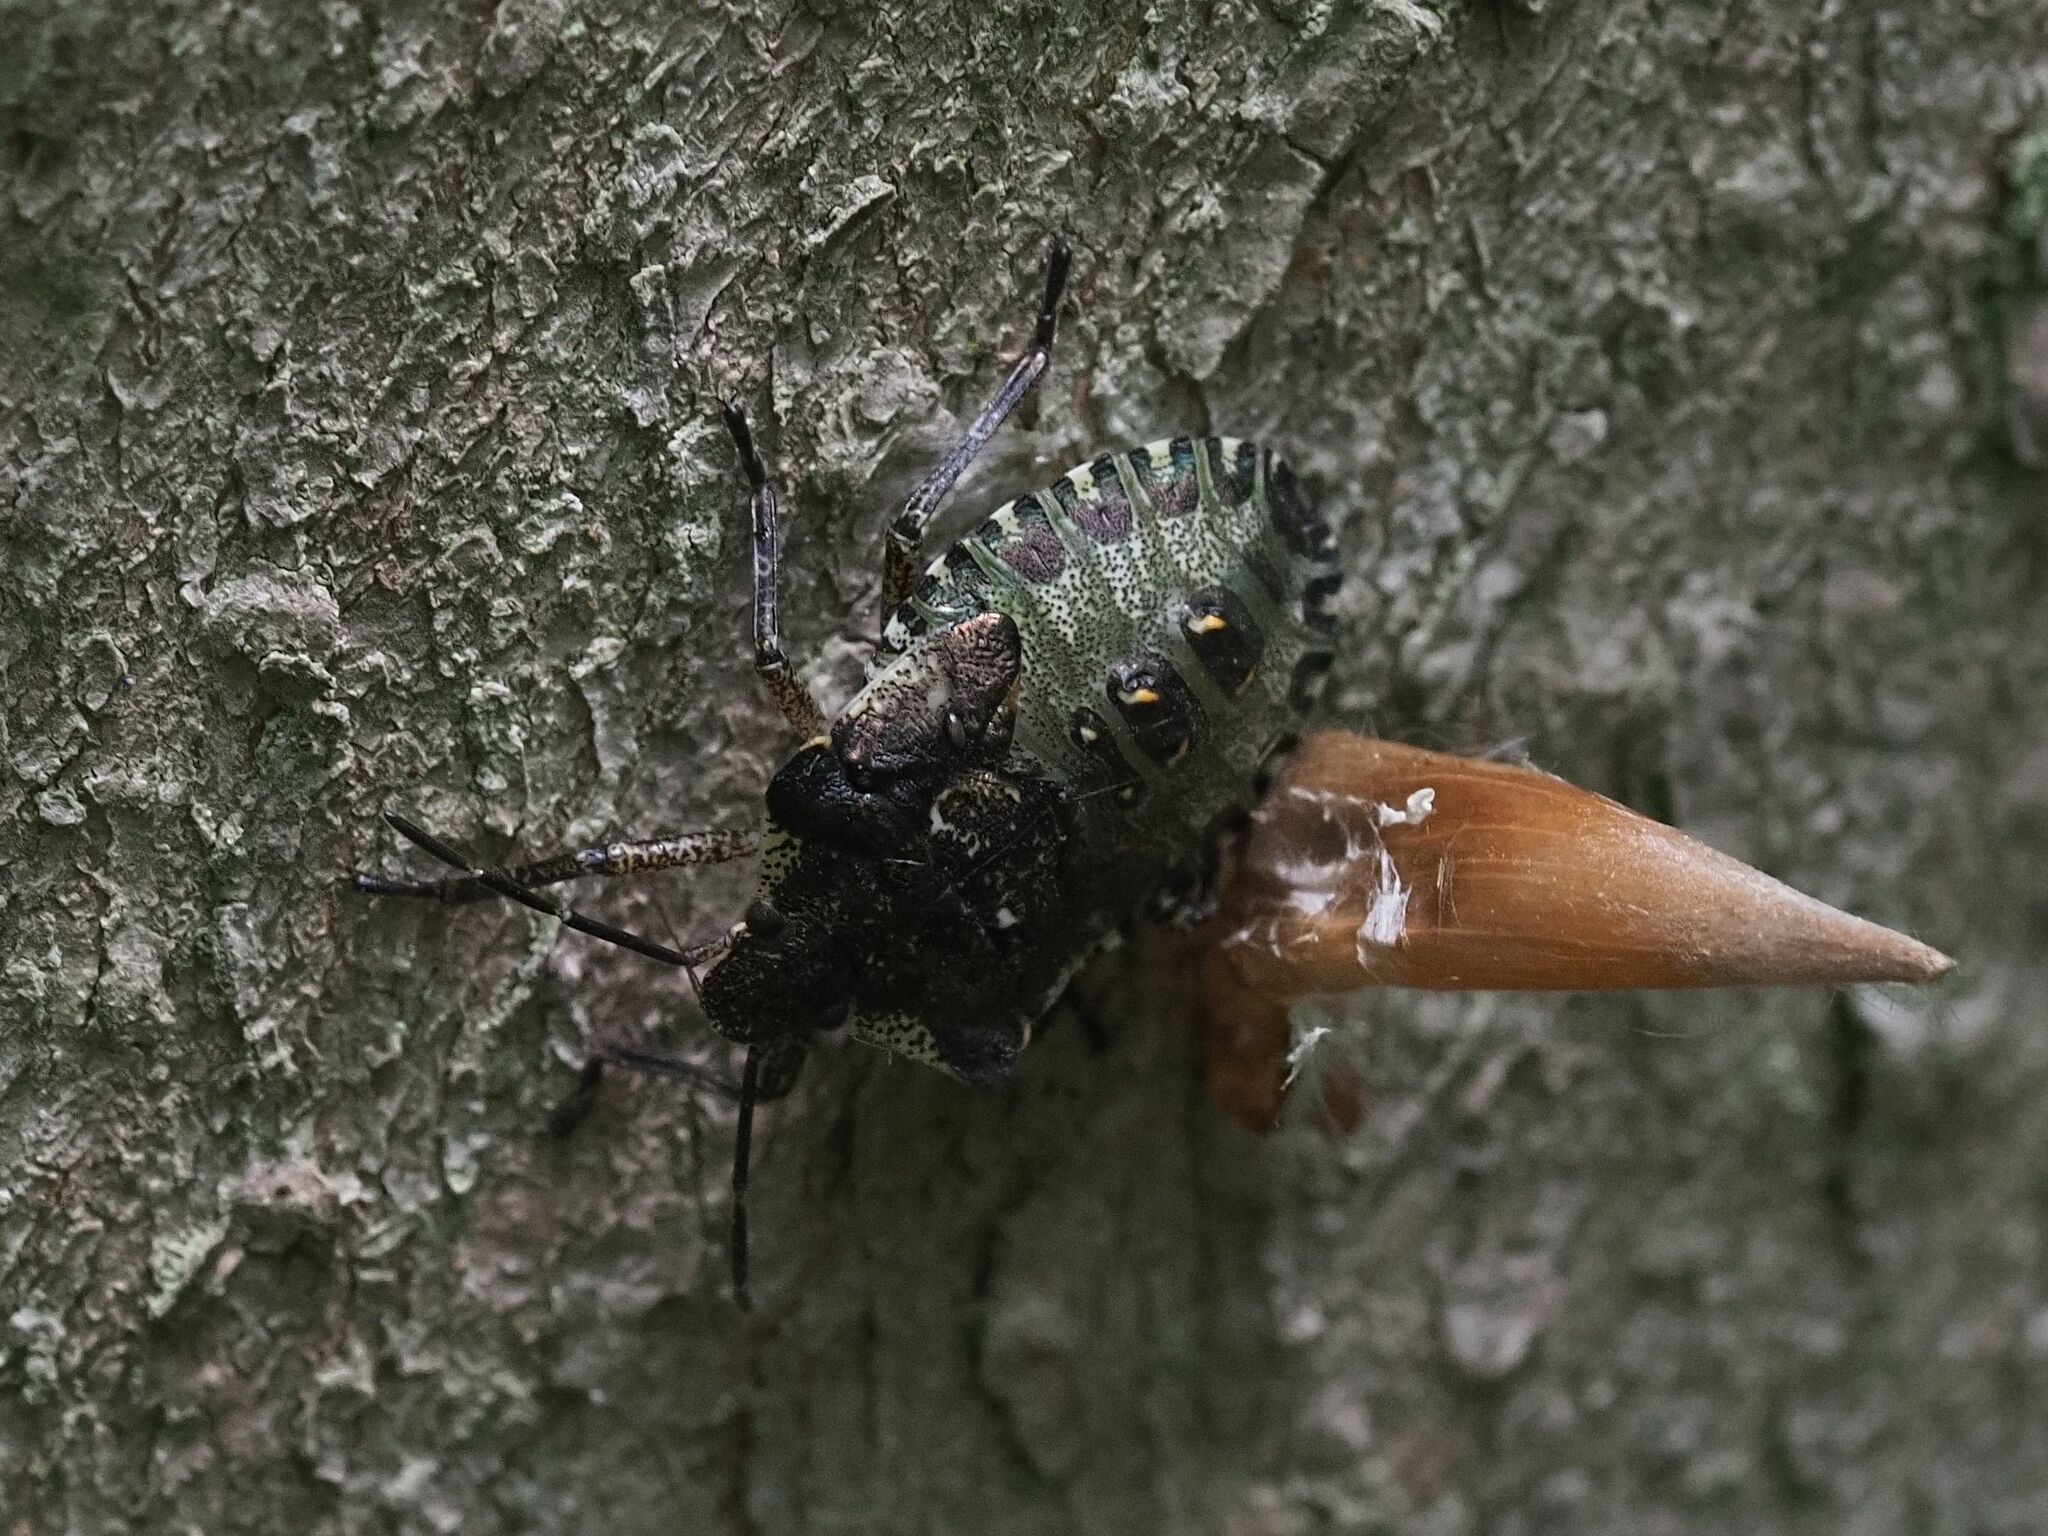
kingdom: Animalia
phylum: Arthropoda
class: Insecta
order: Hemiptera
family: Pentatomidae
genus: Pentatoma
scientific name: Pentatoma rufipes
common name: Forest bug
